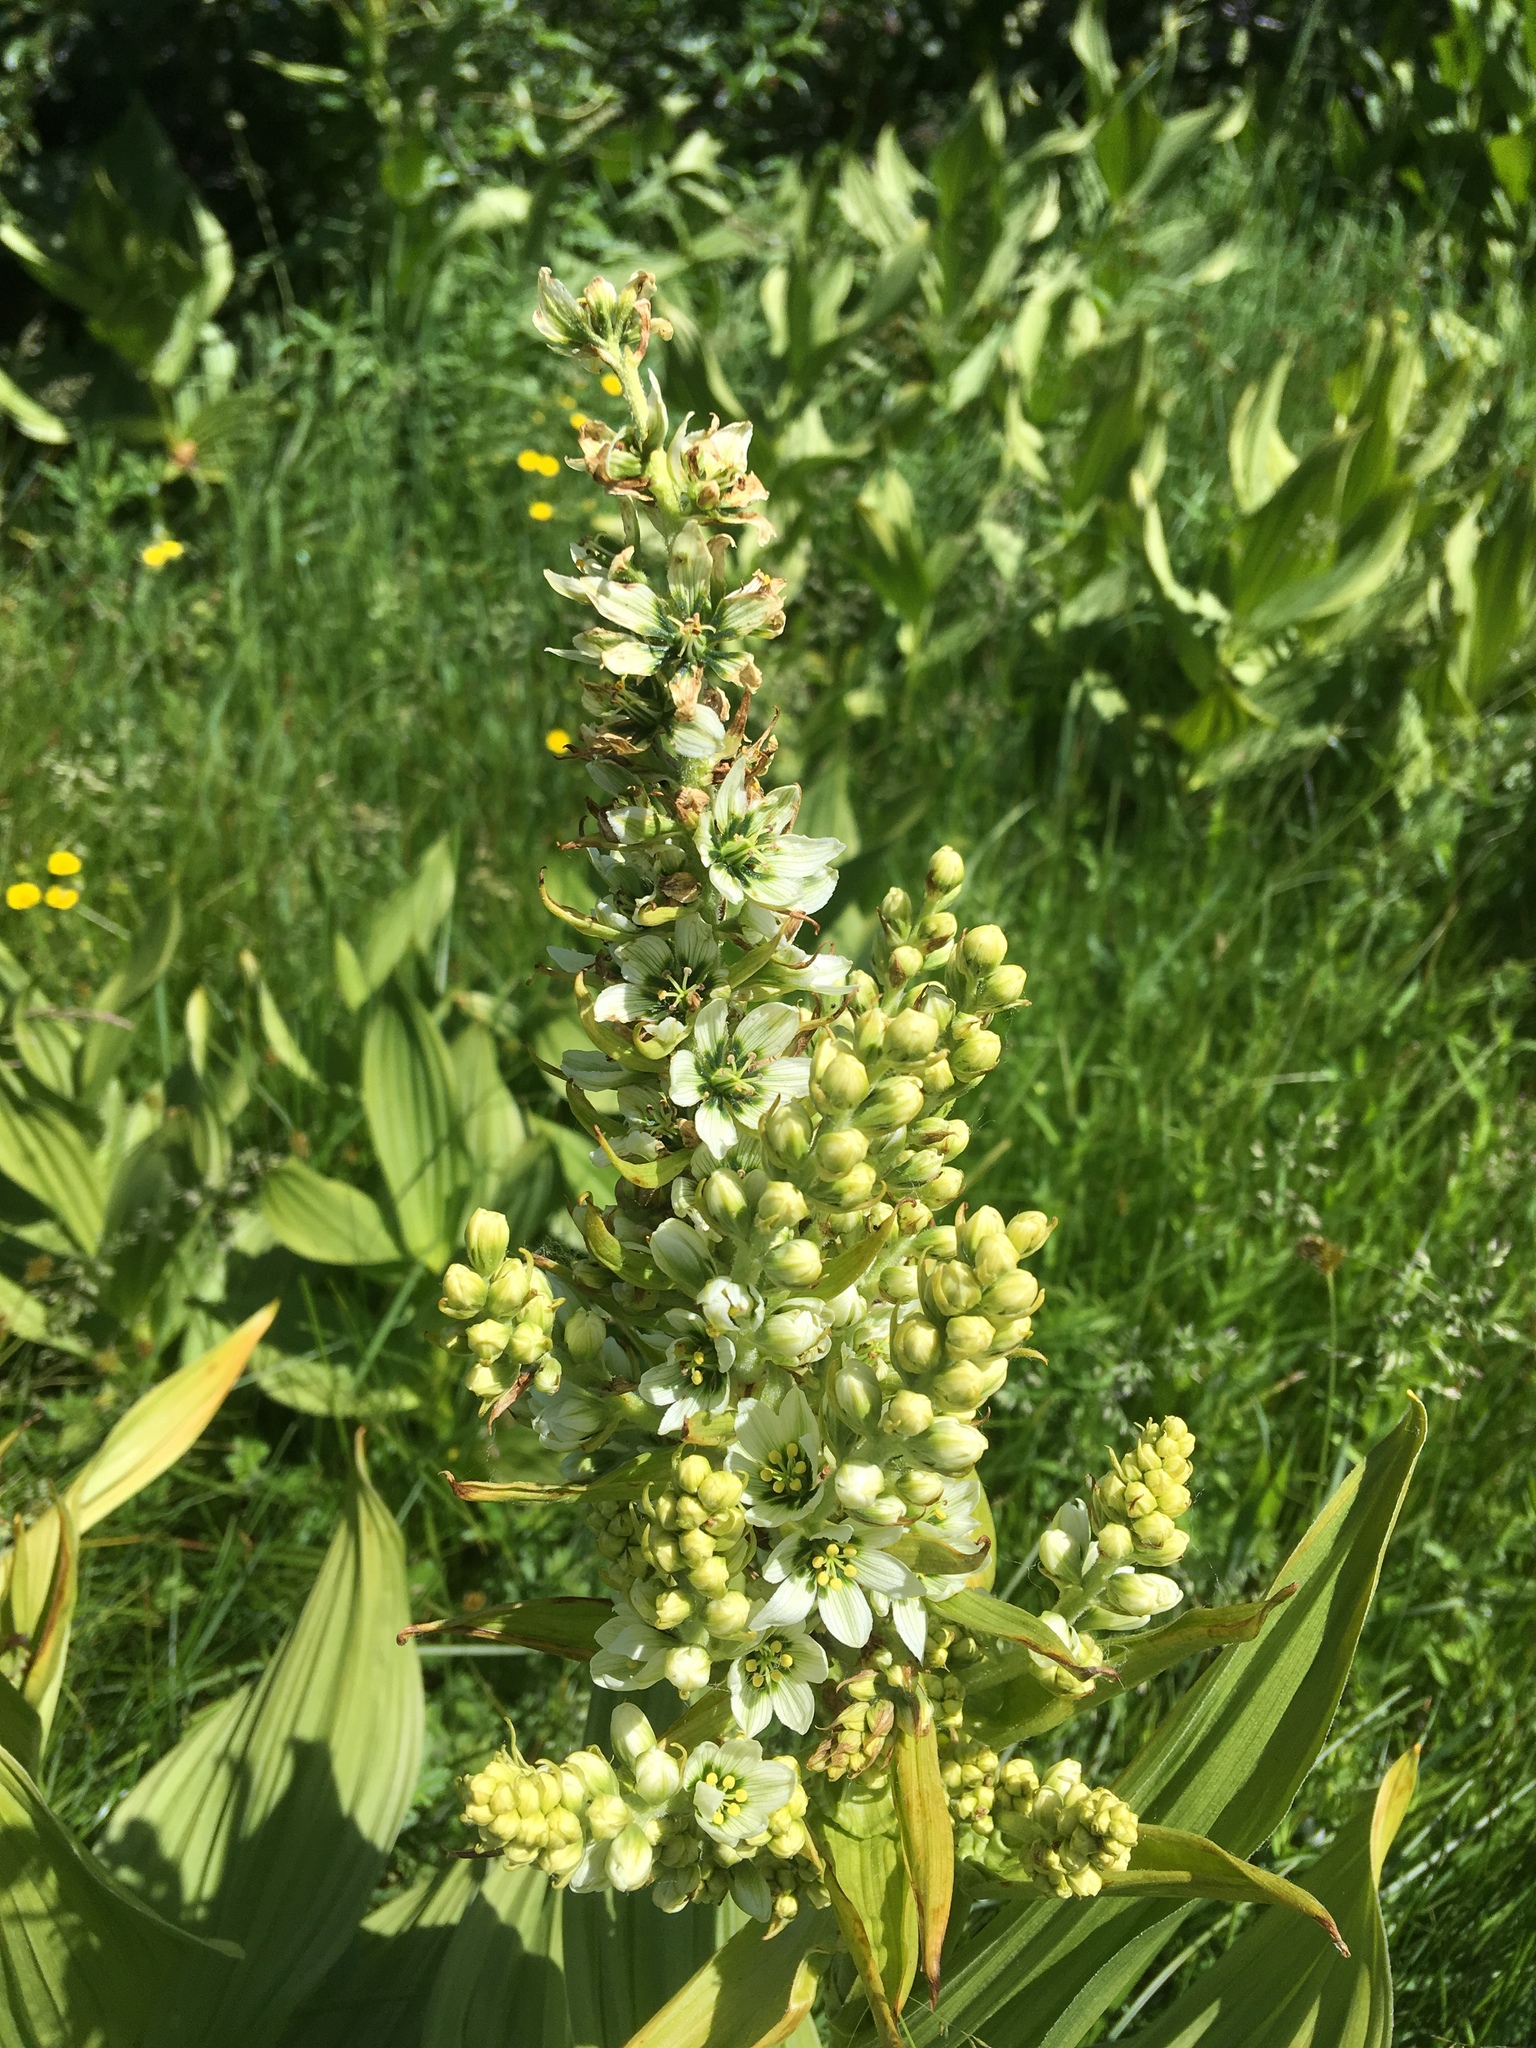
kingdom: Plantae
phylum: Tracheophyta
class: Liliopsida
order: Liliales
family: Melanthiaceae
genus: Veratrum
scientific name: Veratrum californicum
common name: California veratrum
